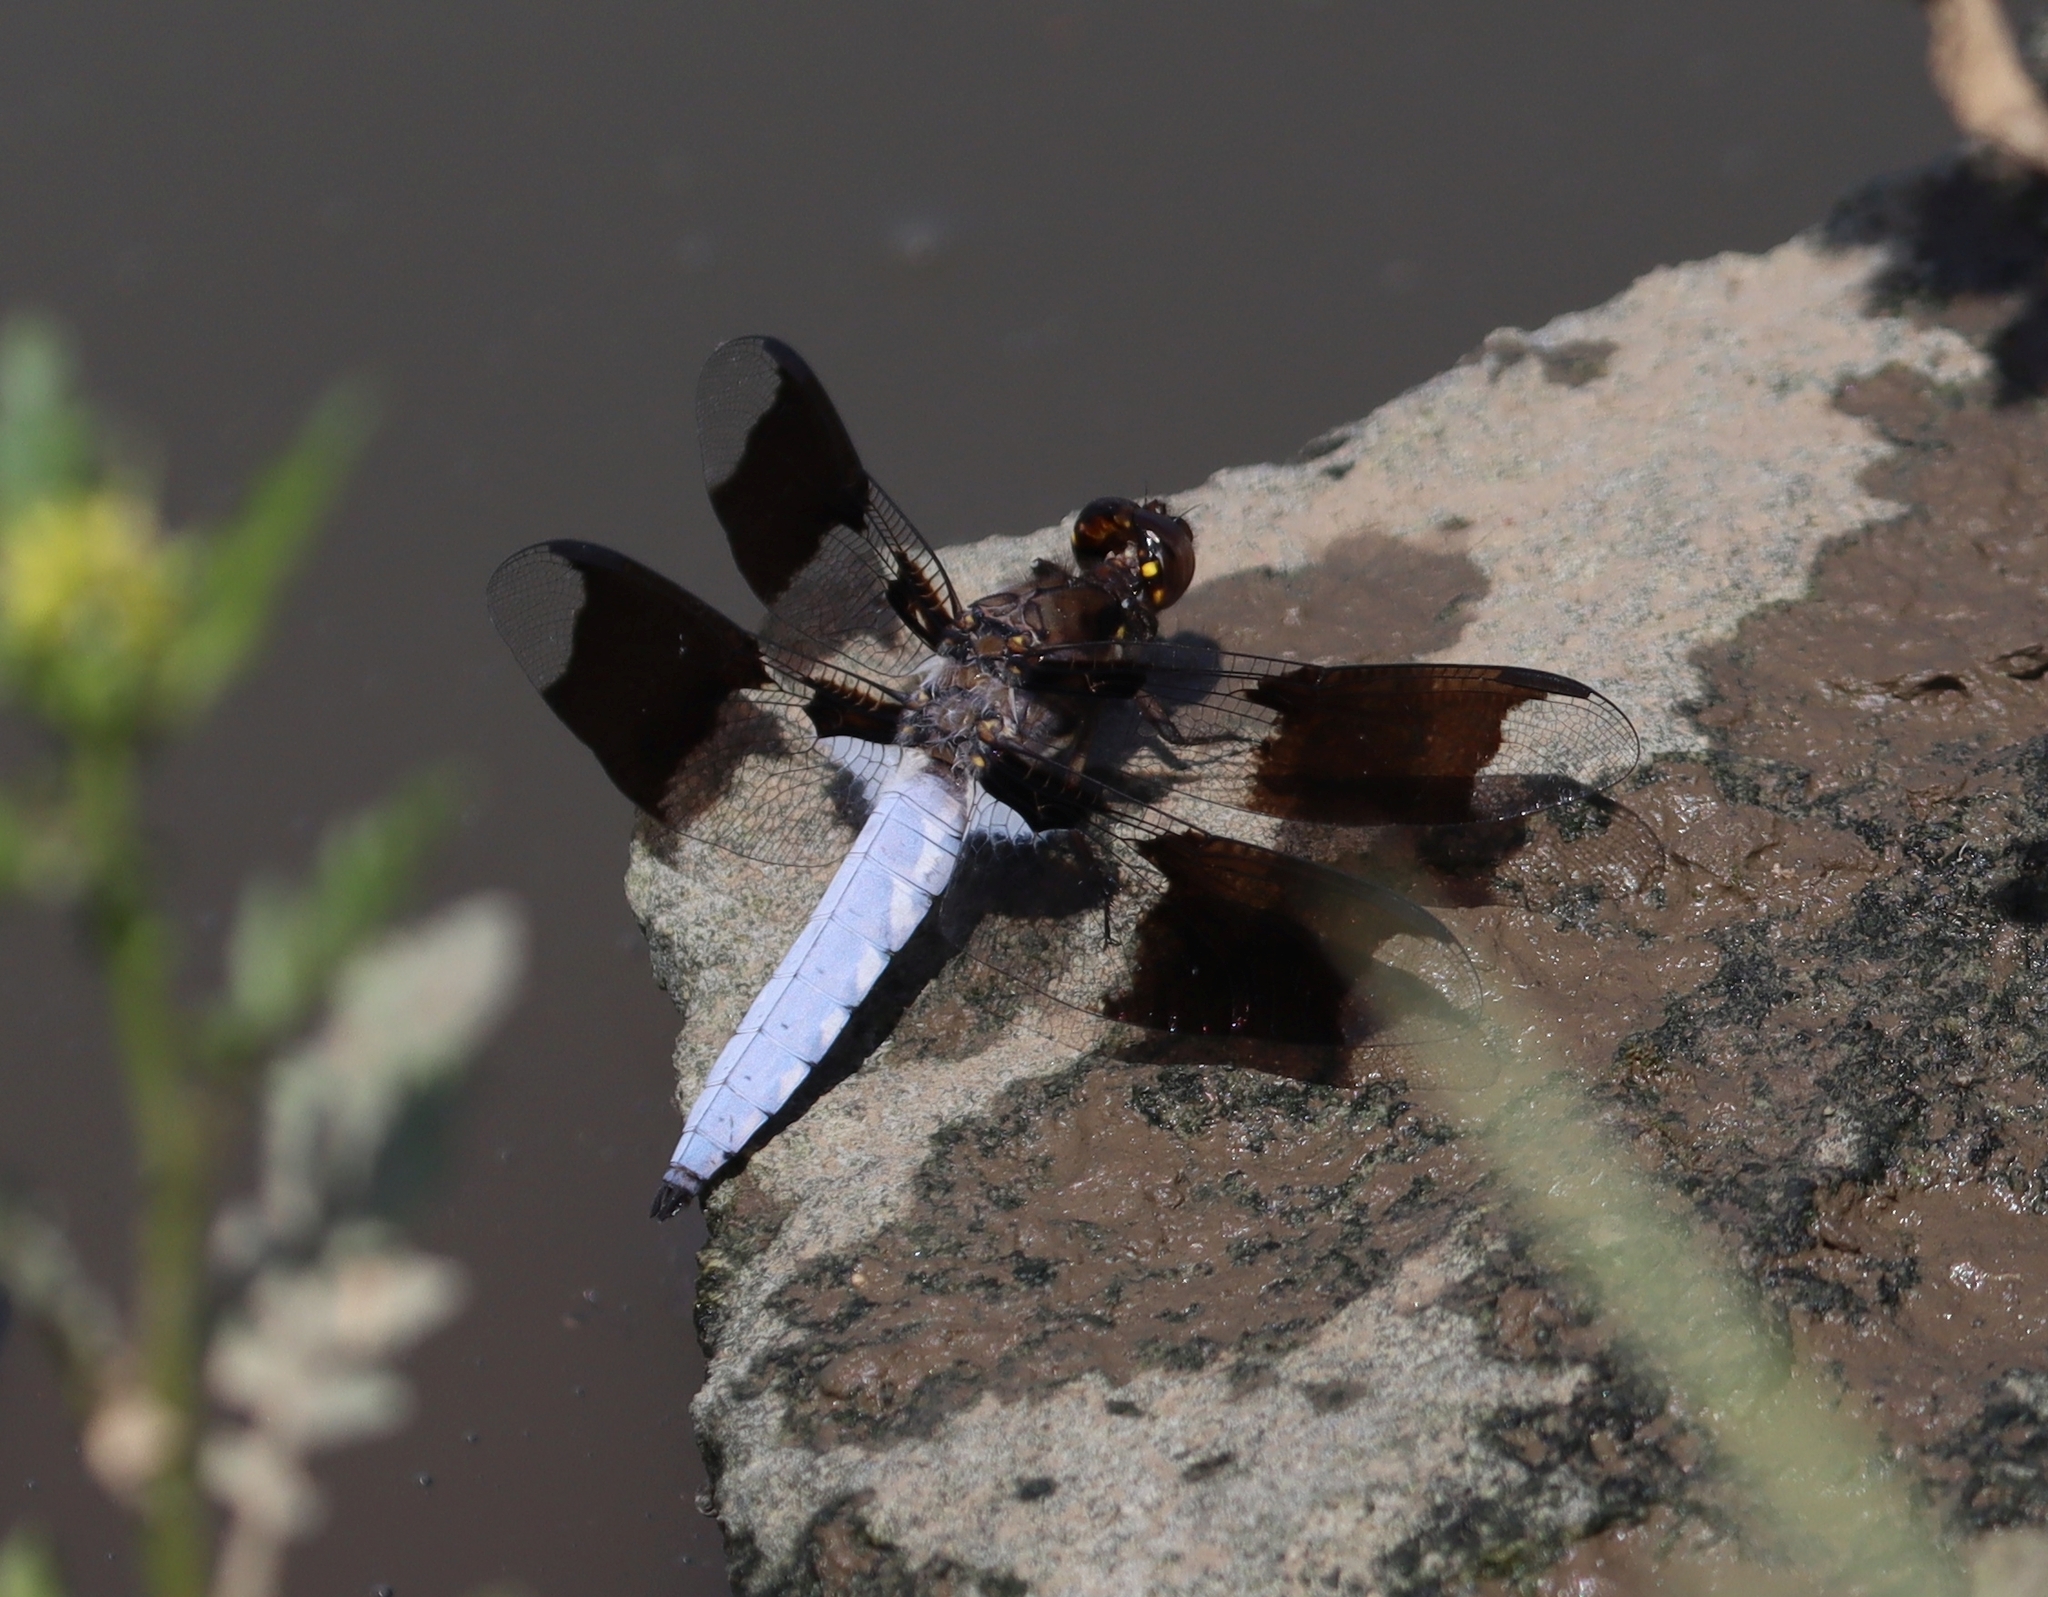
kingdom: Animalia
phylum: Arthropoda
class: Insecta
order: Odonata
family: Libellulidae
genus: Plathemis
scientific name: Plathemis lydia
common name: Common whitetail
